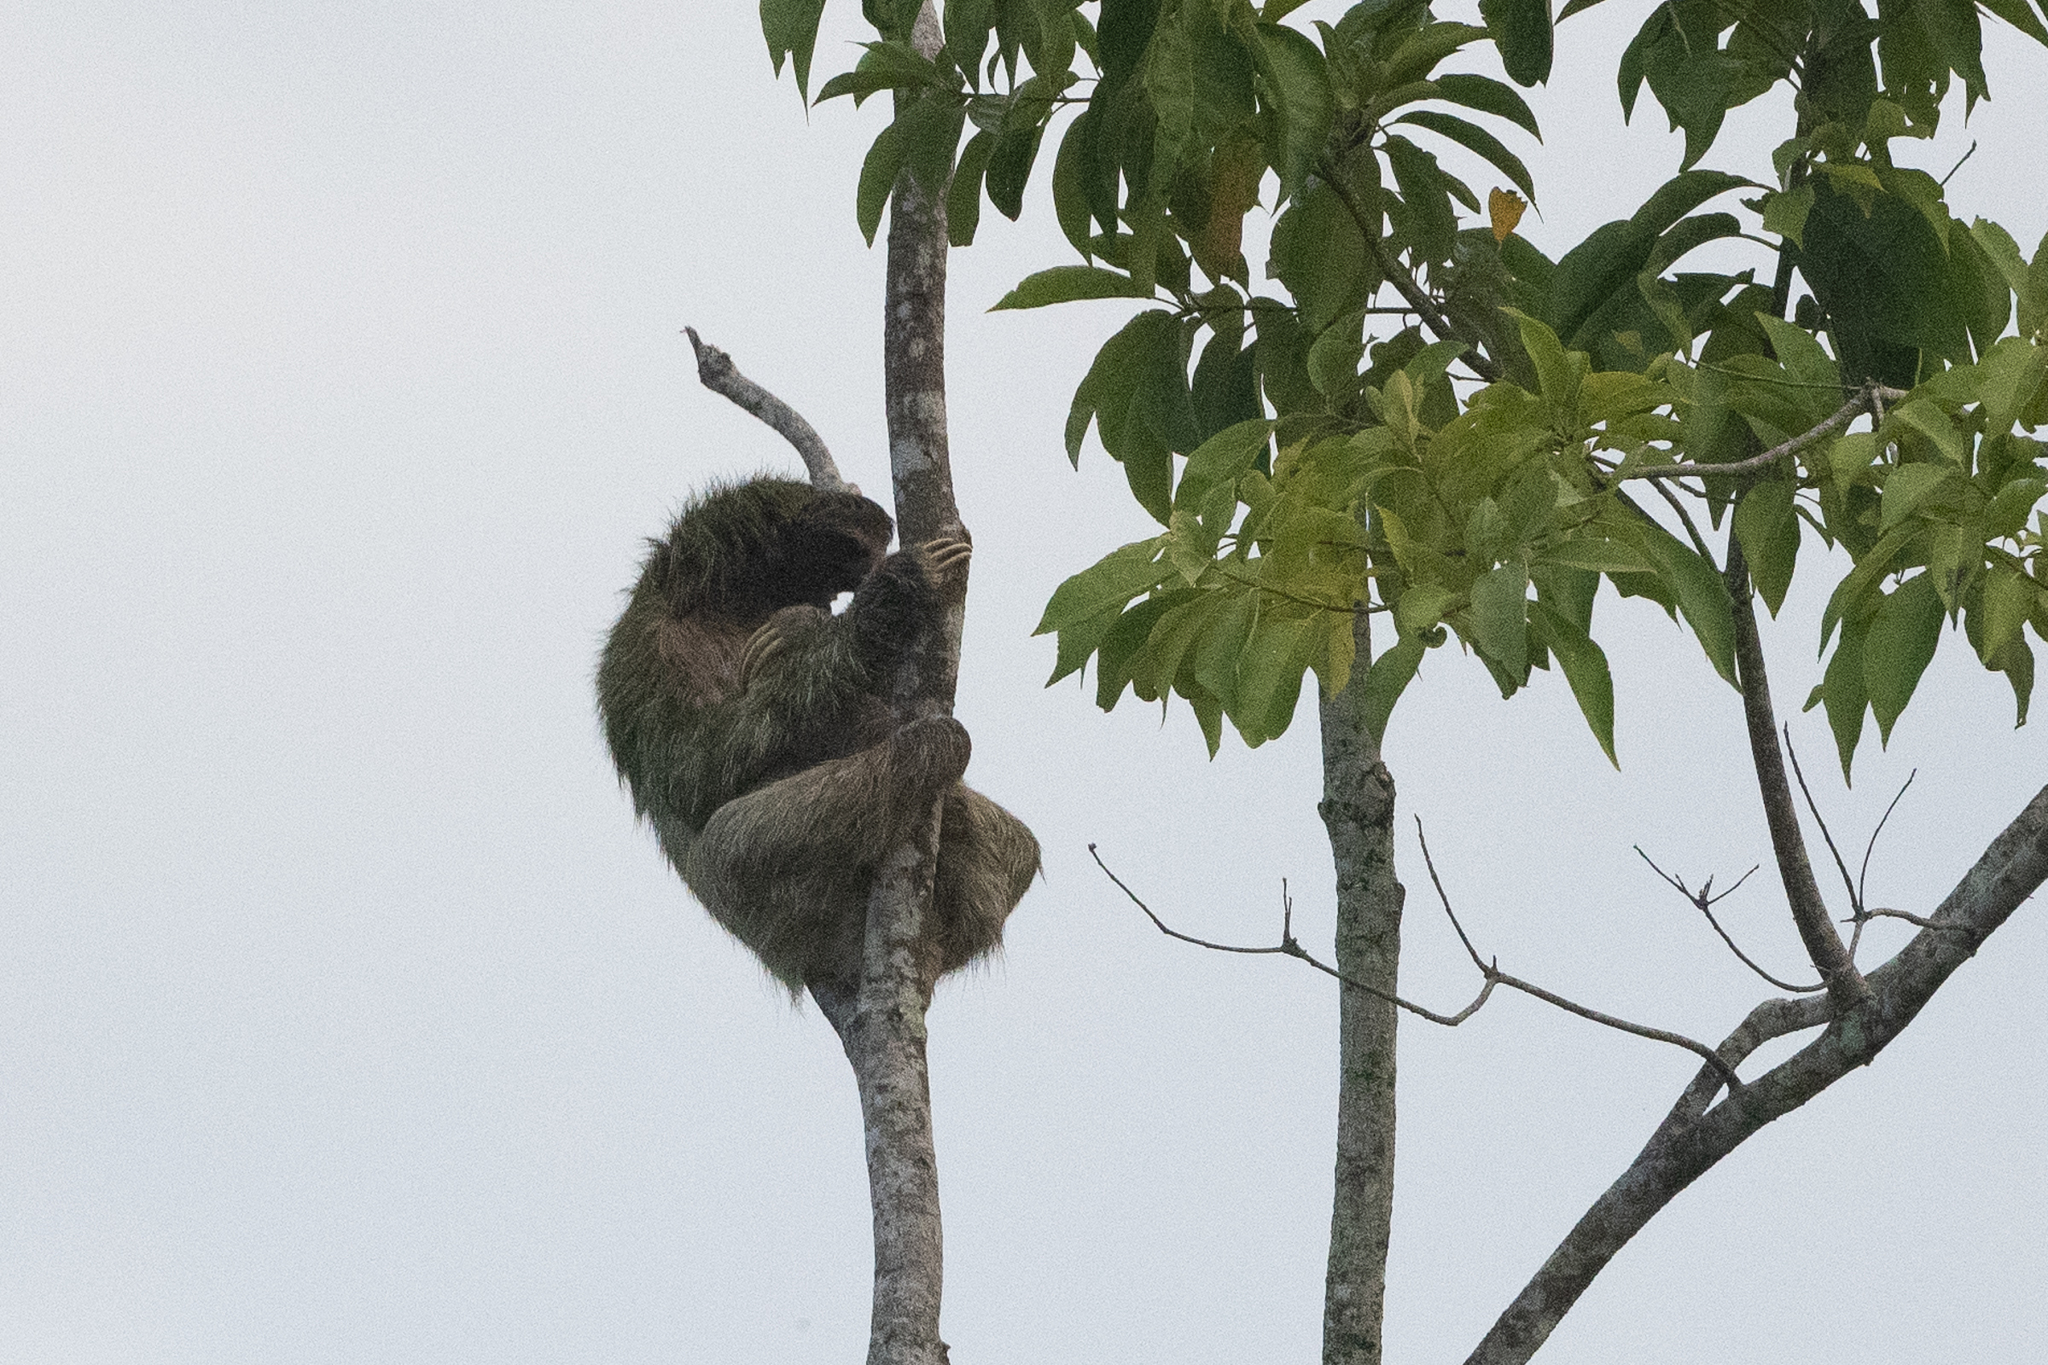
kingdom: Animalia
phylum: Chordata
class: Mammalia
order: Pilosa
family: Bradypodidae
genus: Bradypus
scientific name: Bradypus variegatus
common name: Brown-throated three-toed sloth
